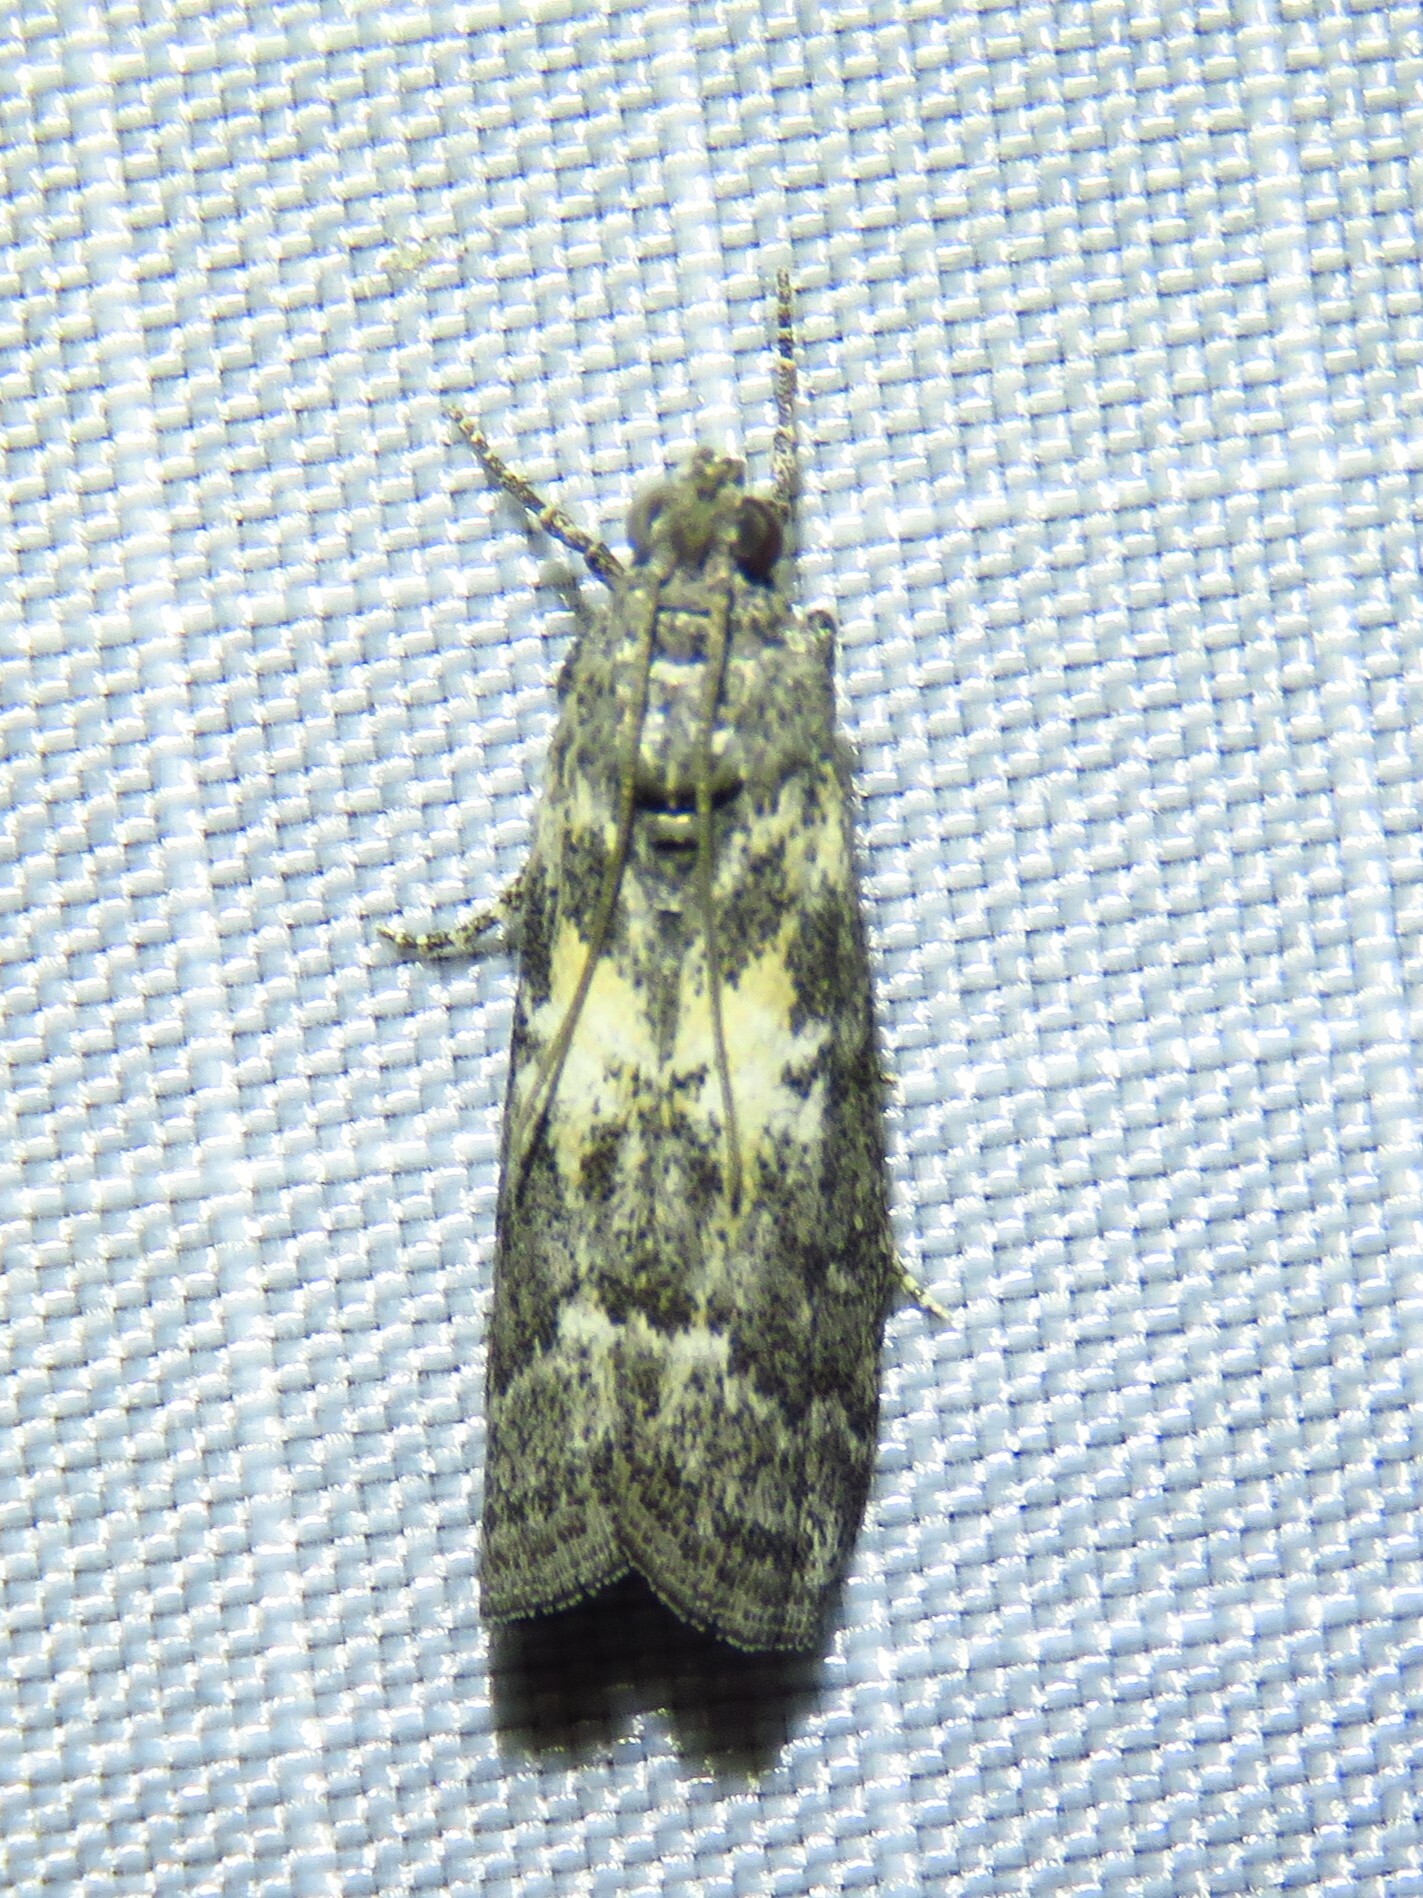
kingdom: Animalia
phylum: Arthropoda
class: Insecta
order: Lepidoptera
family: Pyralidae
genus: Tacoma
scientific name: Tacoma feriella
